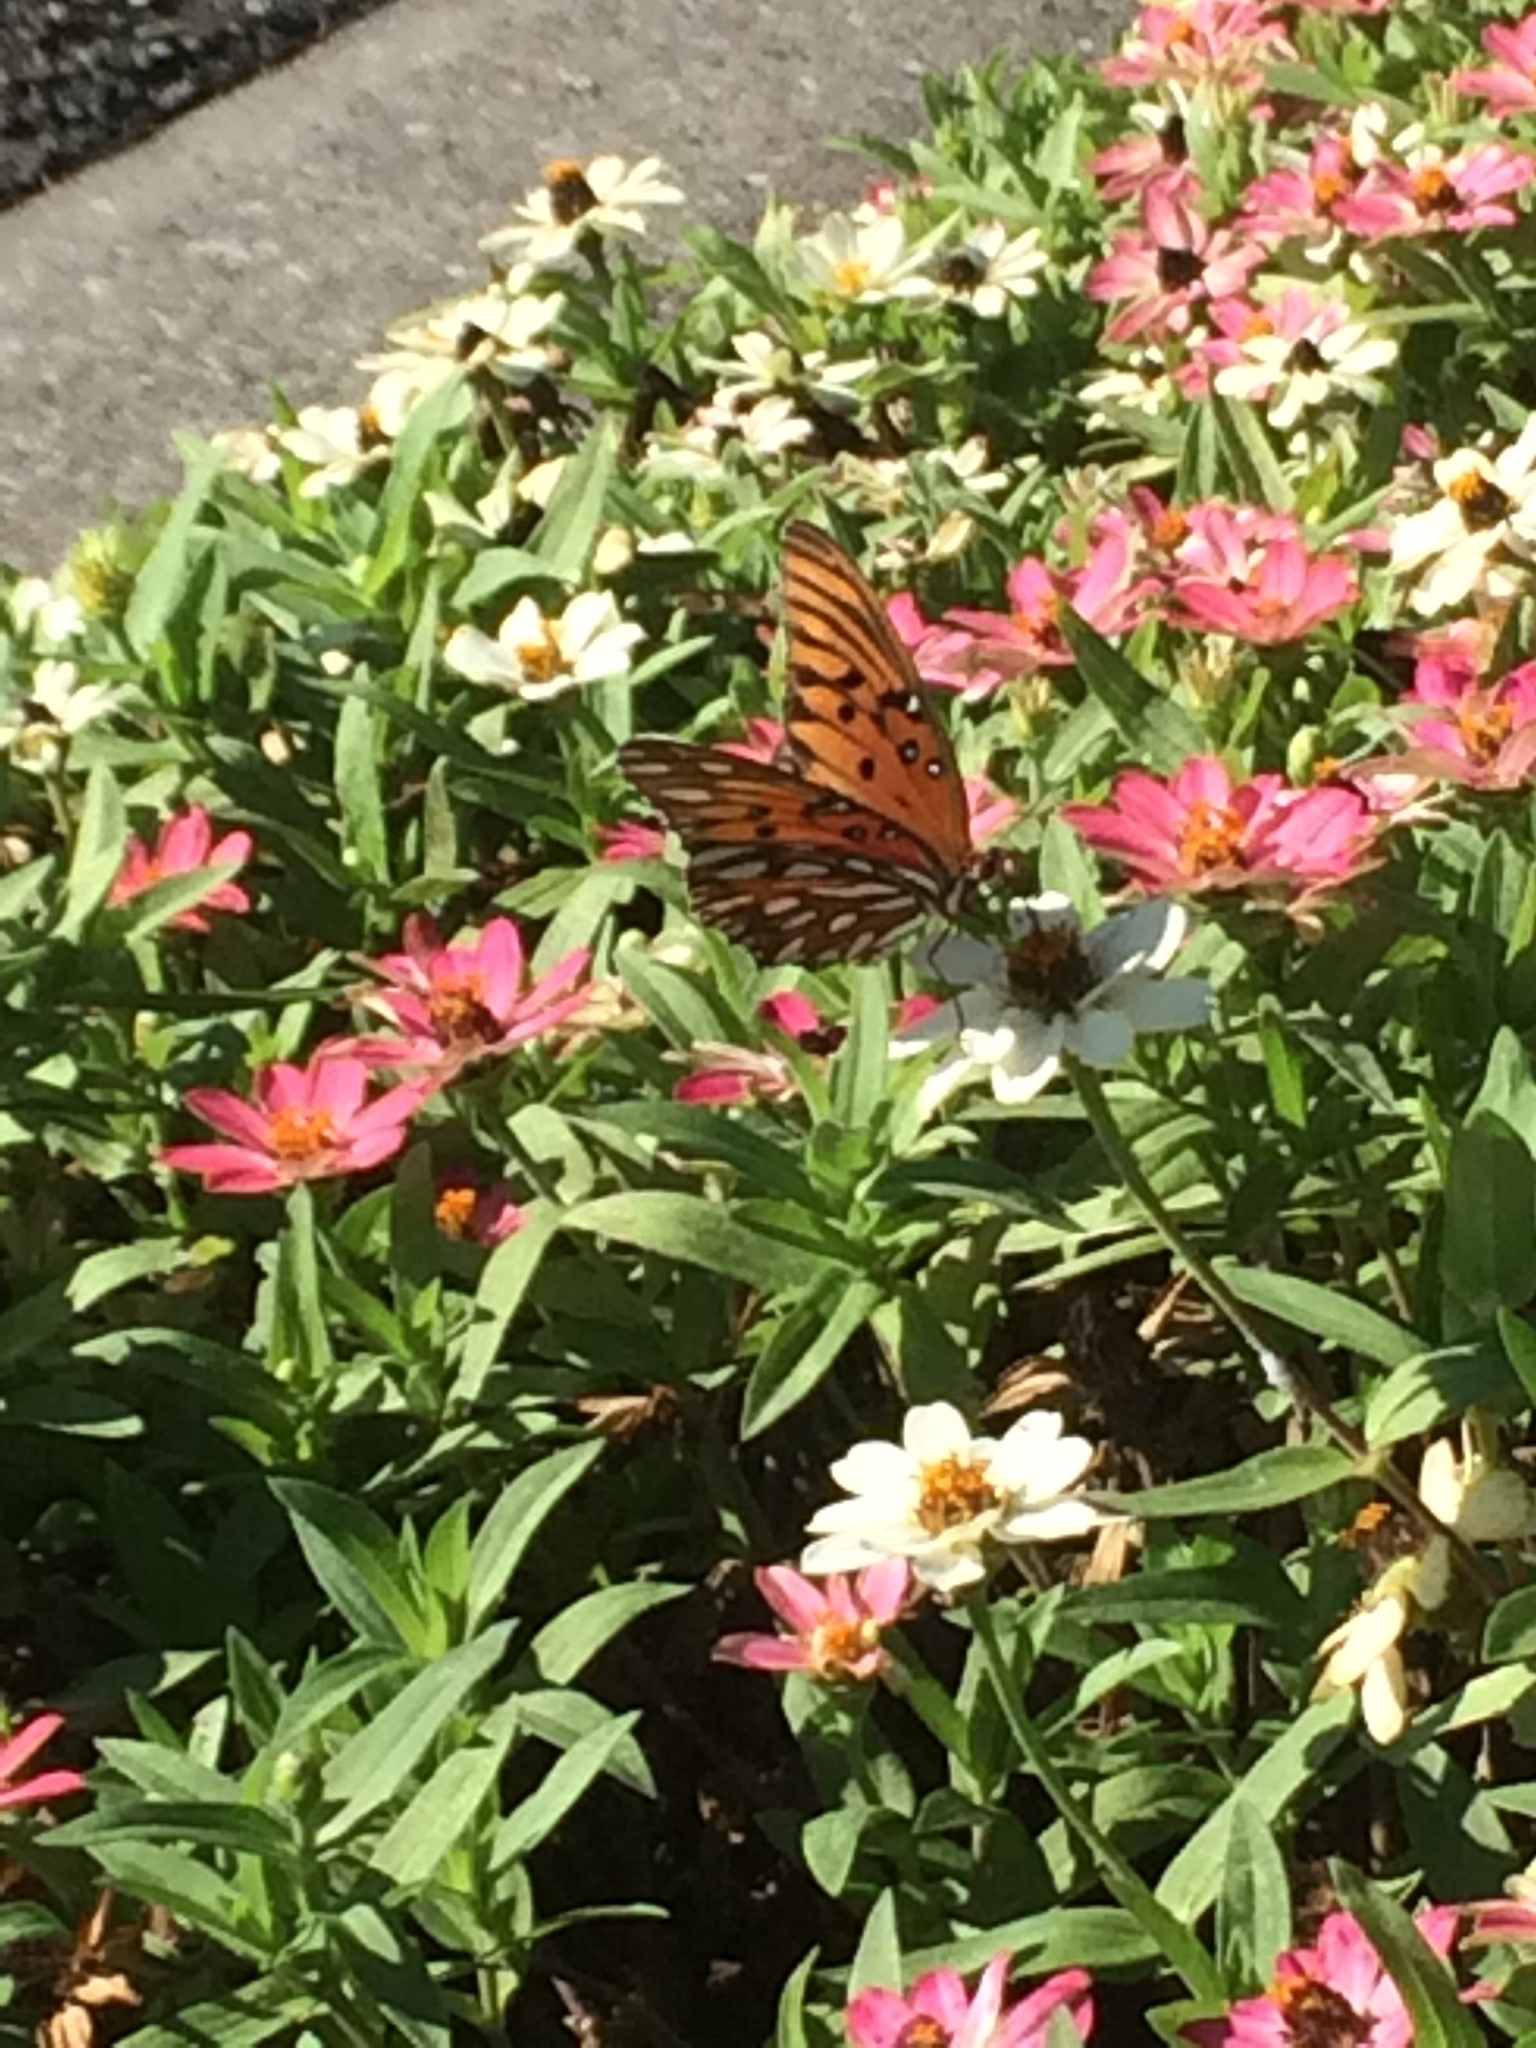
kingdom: Animalia
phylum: Arthropoda
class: Insecta
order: Lepidoptera
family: Nymphalidae
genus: Dione
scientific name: Dione vanillae
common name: Gulf fritillary
